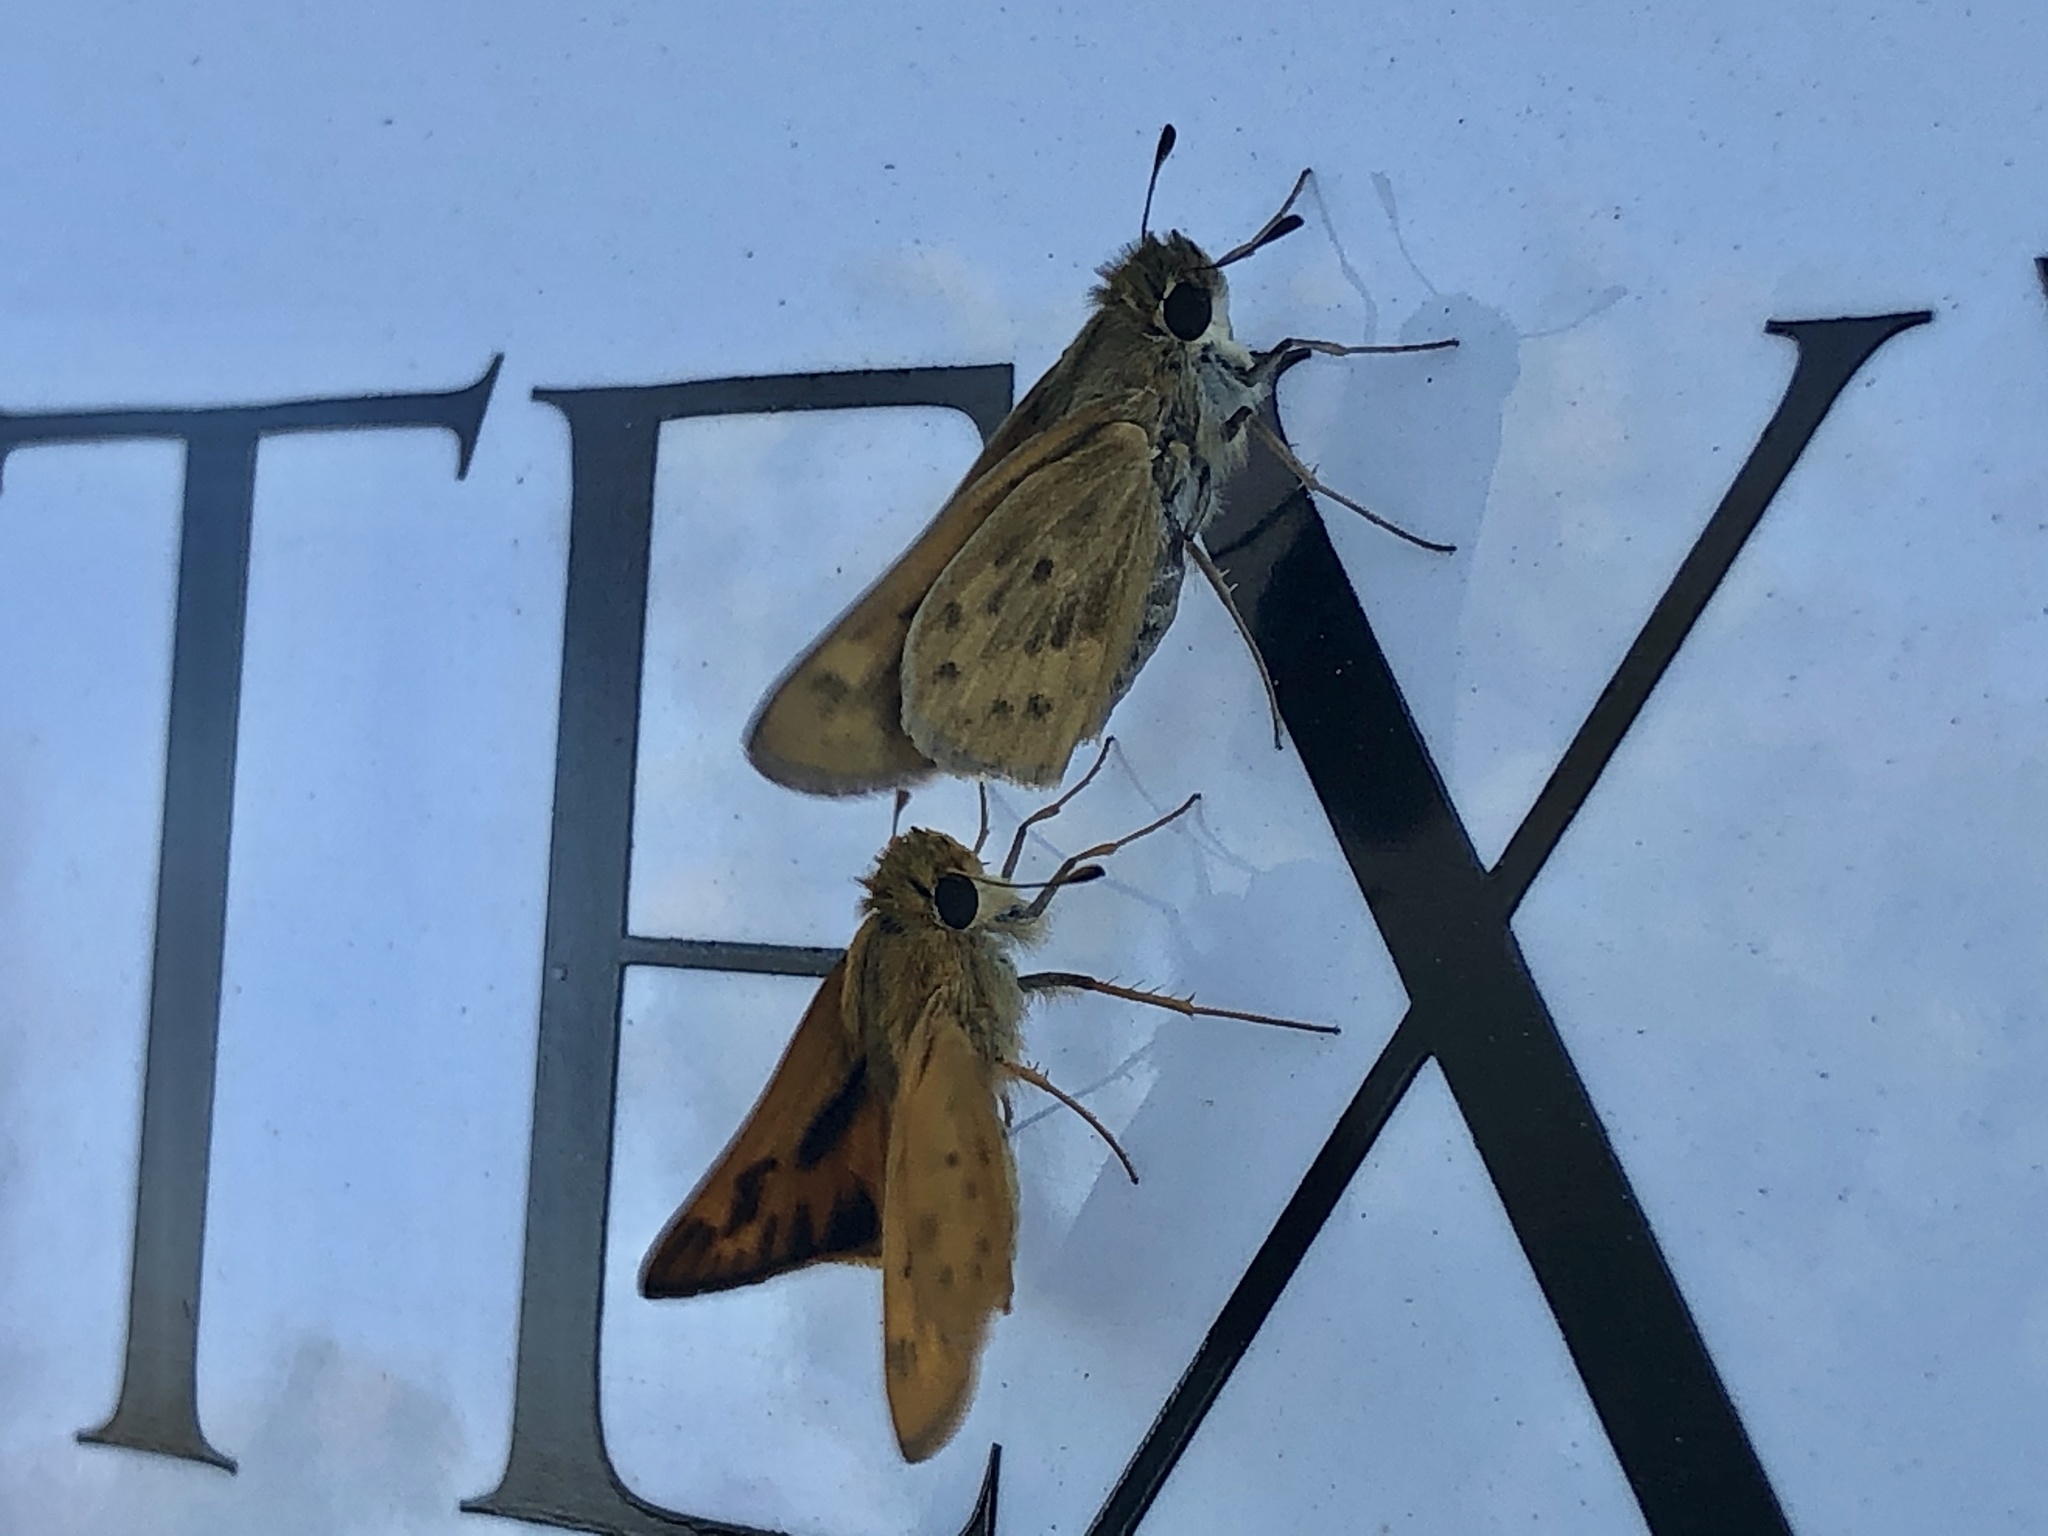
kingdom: Animalia
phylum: Arthropoda
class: Insecta
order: Lepidoptera
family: Hesperiidae
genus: Hylephila
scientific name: Hylephila phyleus
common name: Fiery skipper
